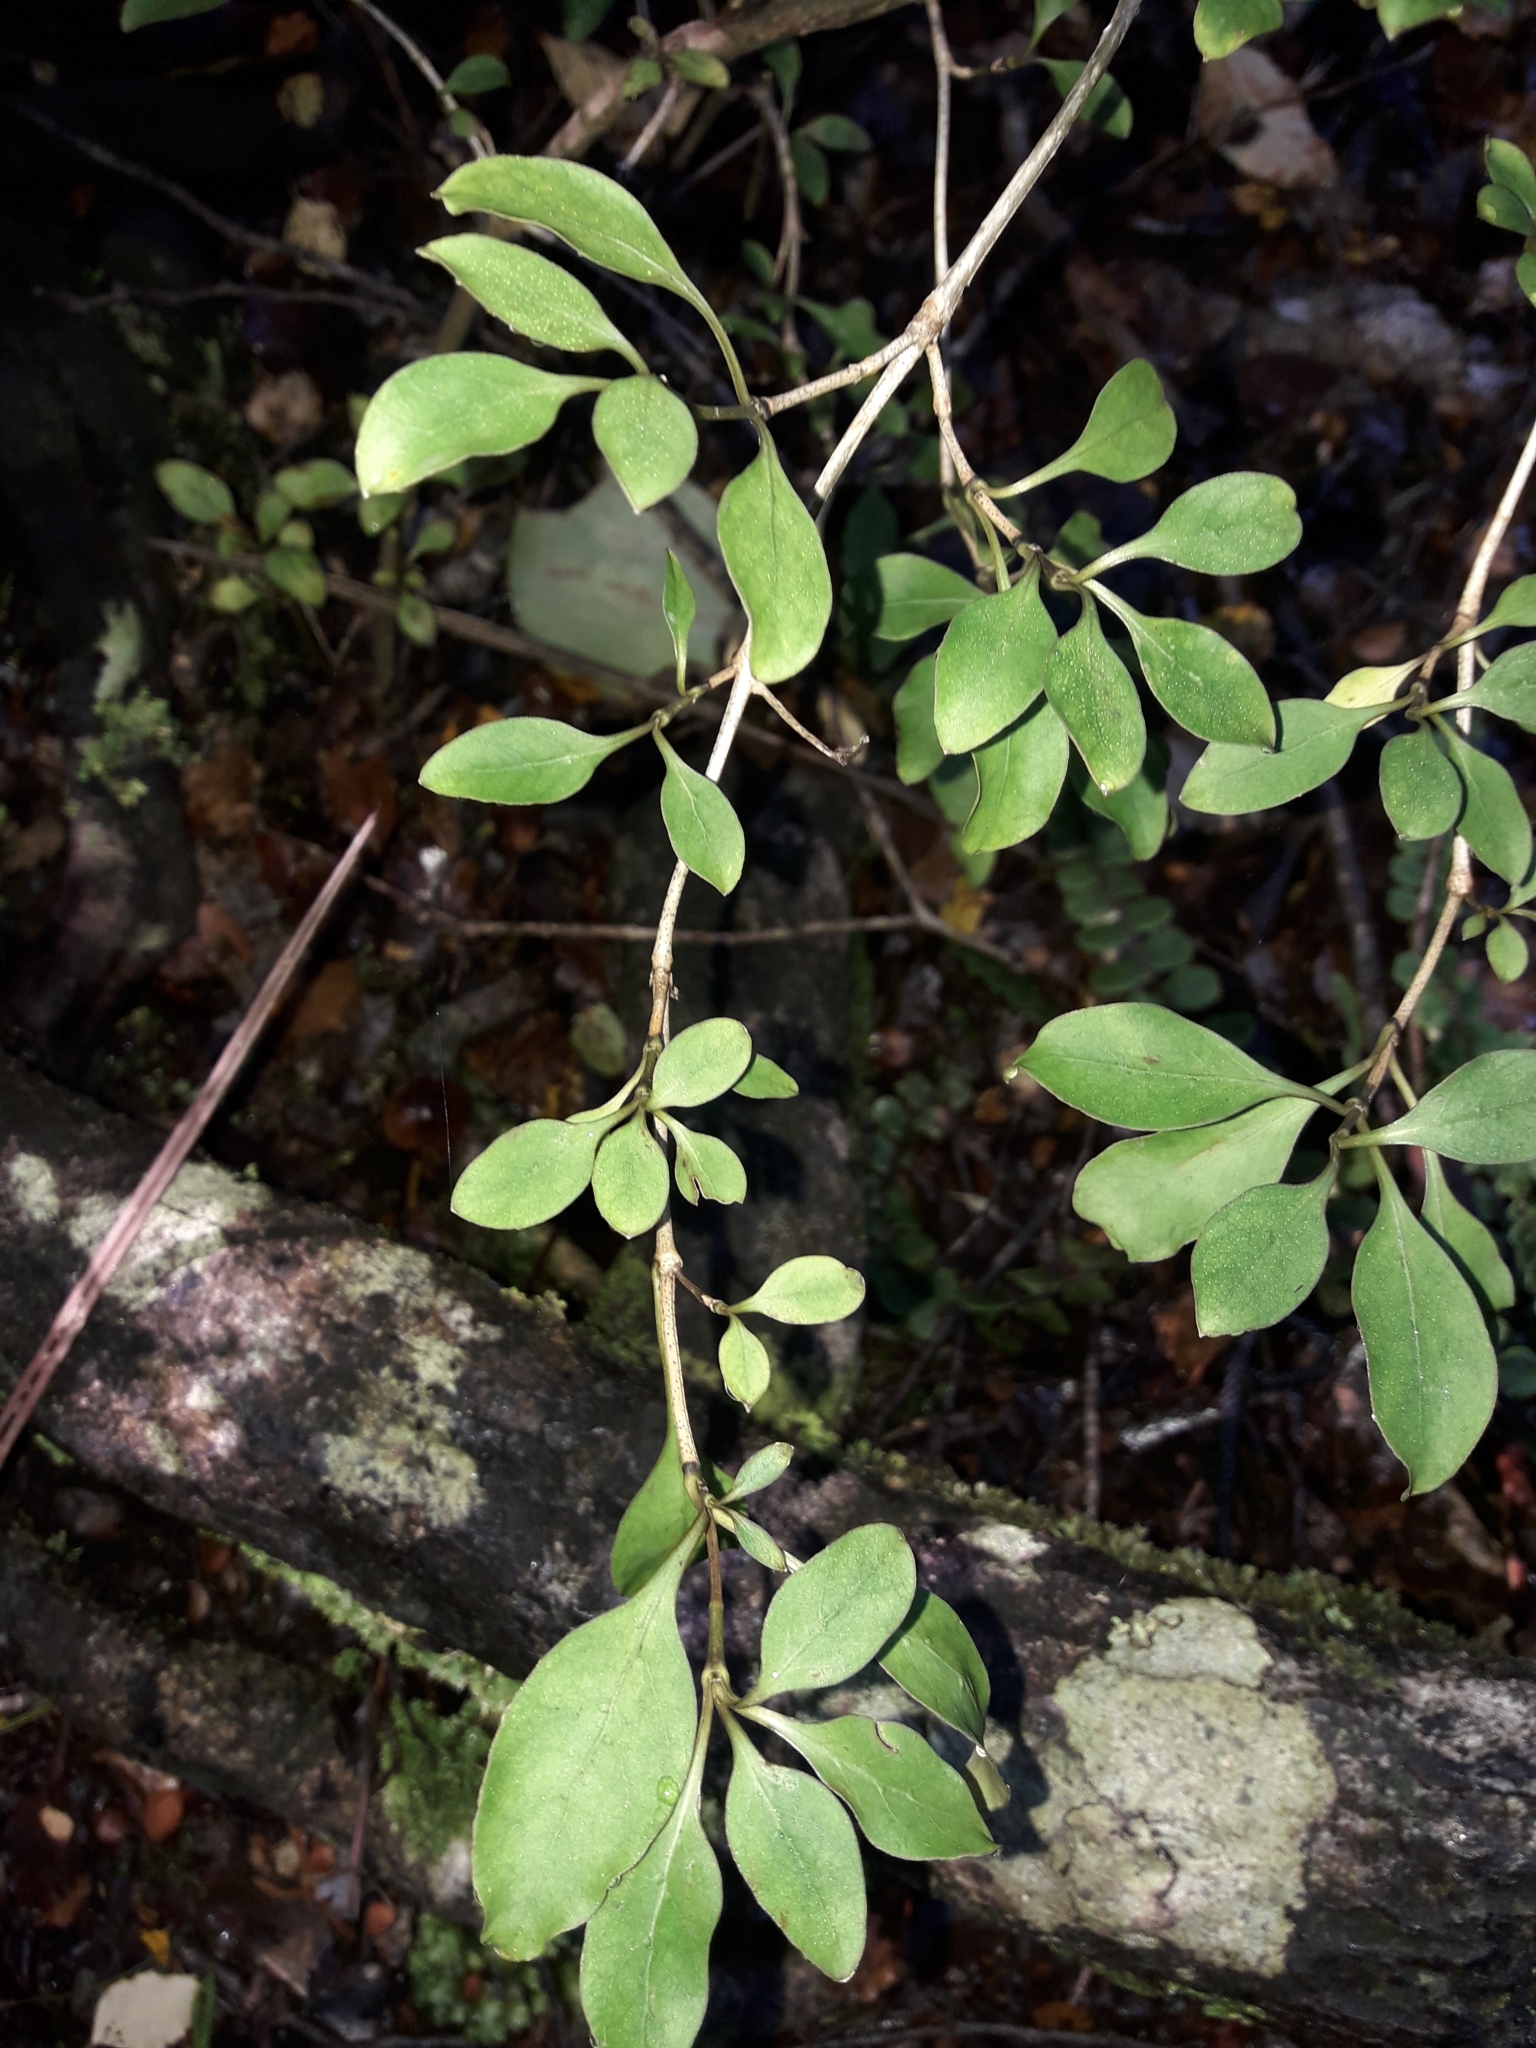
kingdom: Plantae
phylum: Tracheophyta
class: Magnoliopsida
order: Gentianales
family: Rubiaceae
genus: Coprosma
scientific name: Coprosma foetidissima
